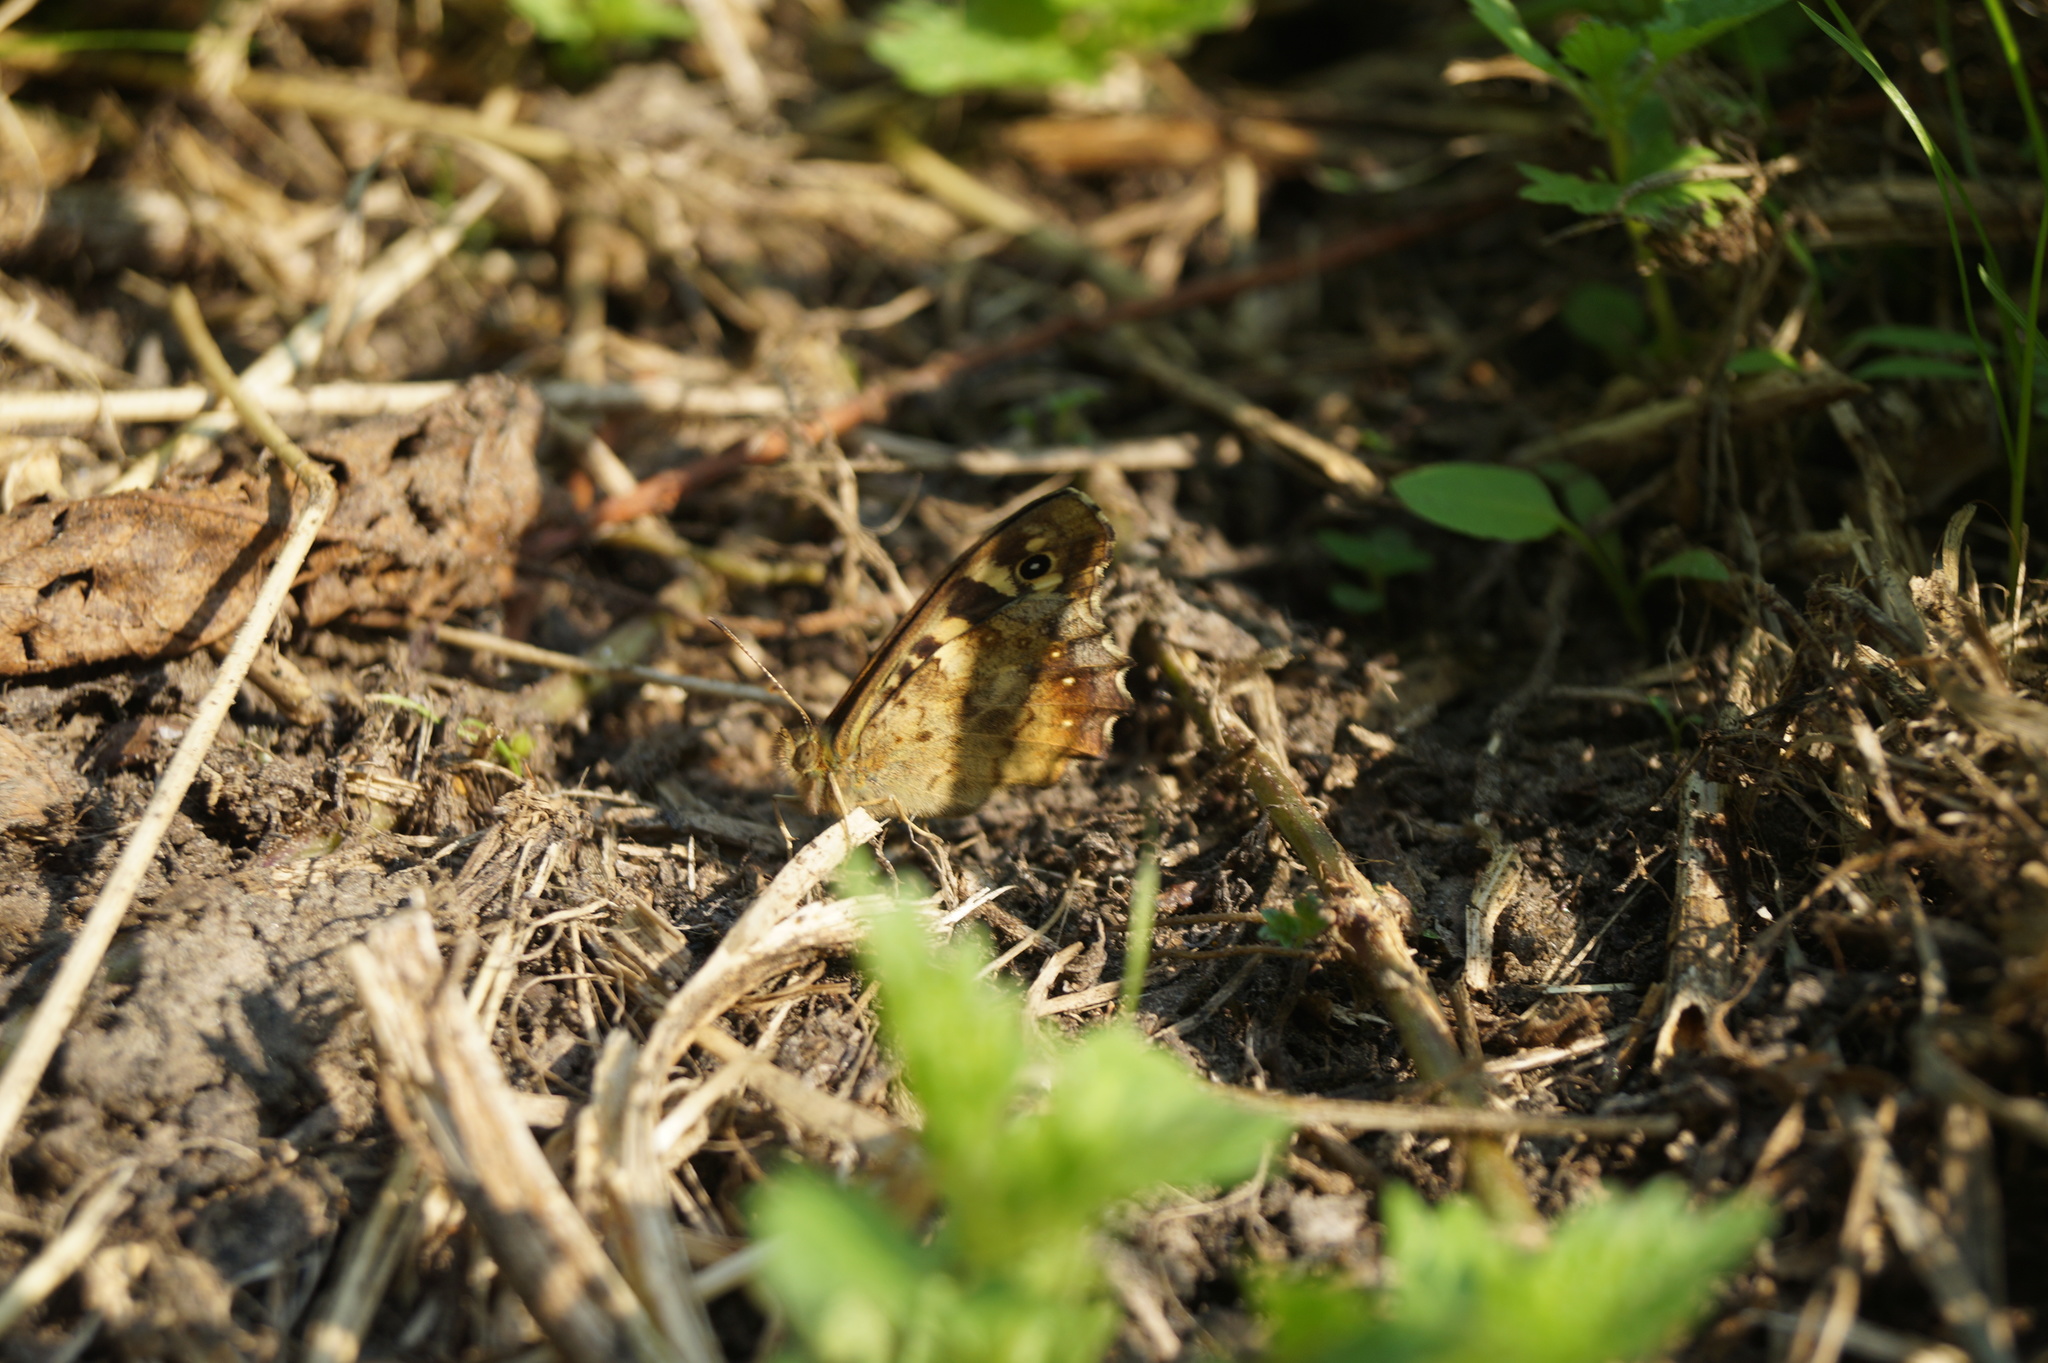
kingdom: Animalia
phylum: Arthropoda
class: Insecta
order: Lepidoptera
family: Nymphalidae
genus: Pararge
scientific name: Pararge aegeria
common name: Speckled wood
